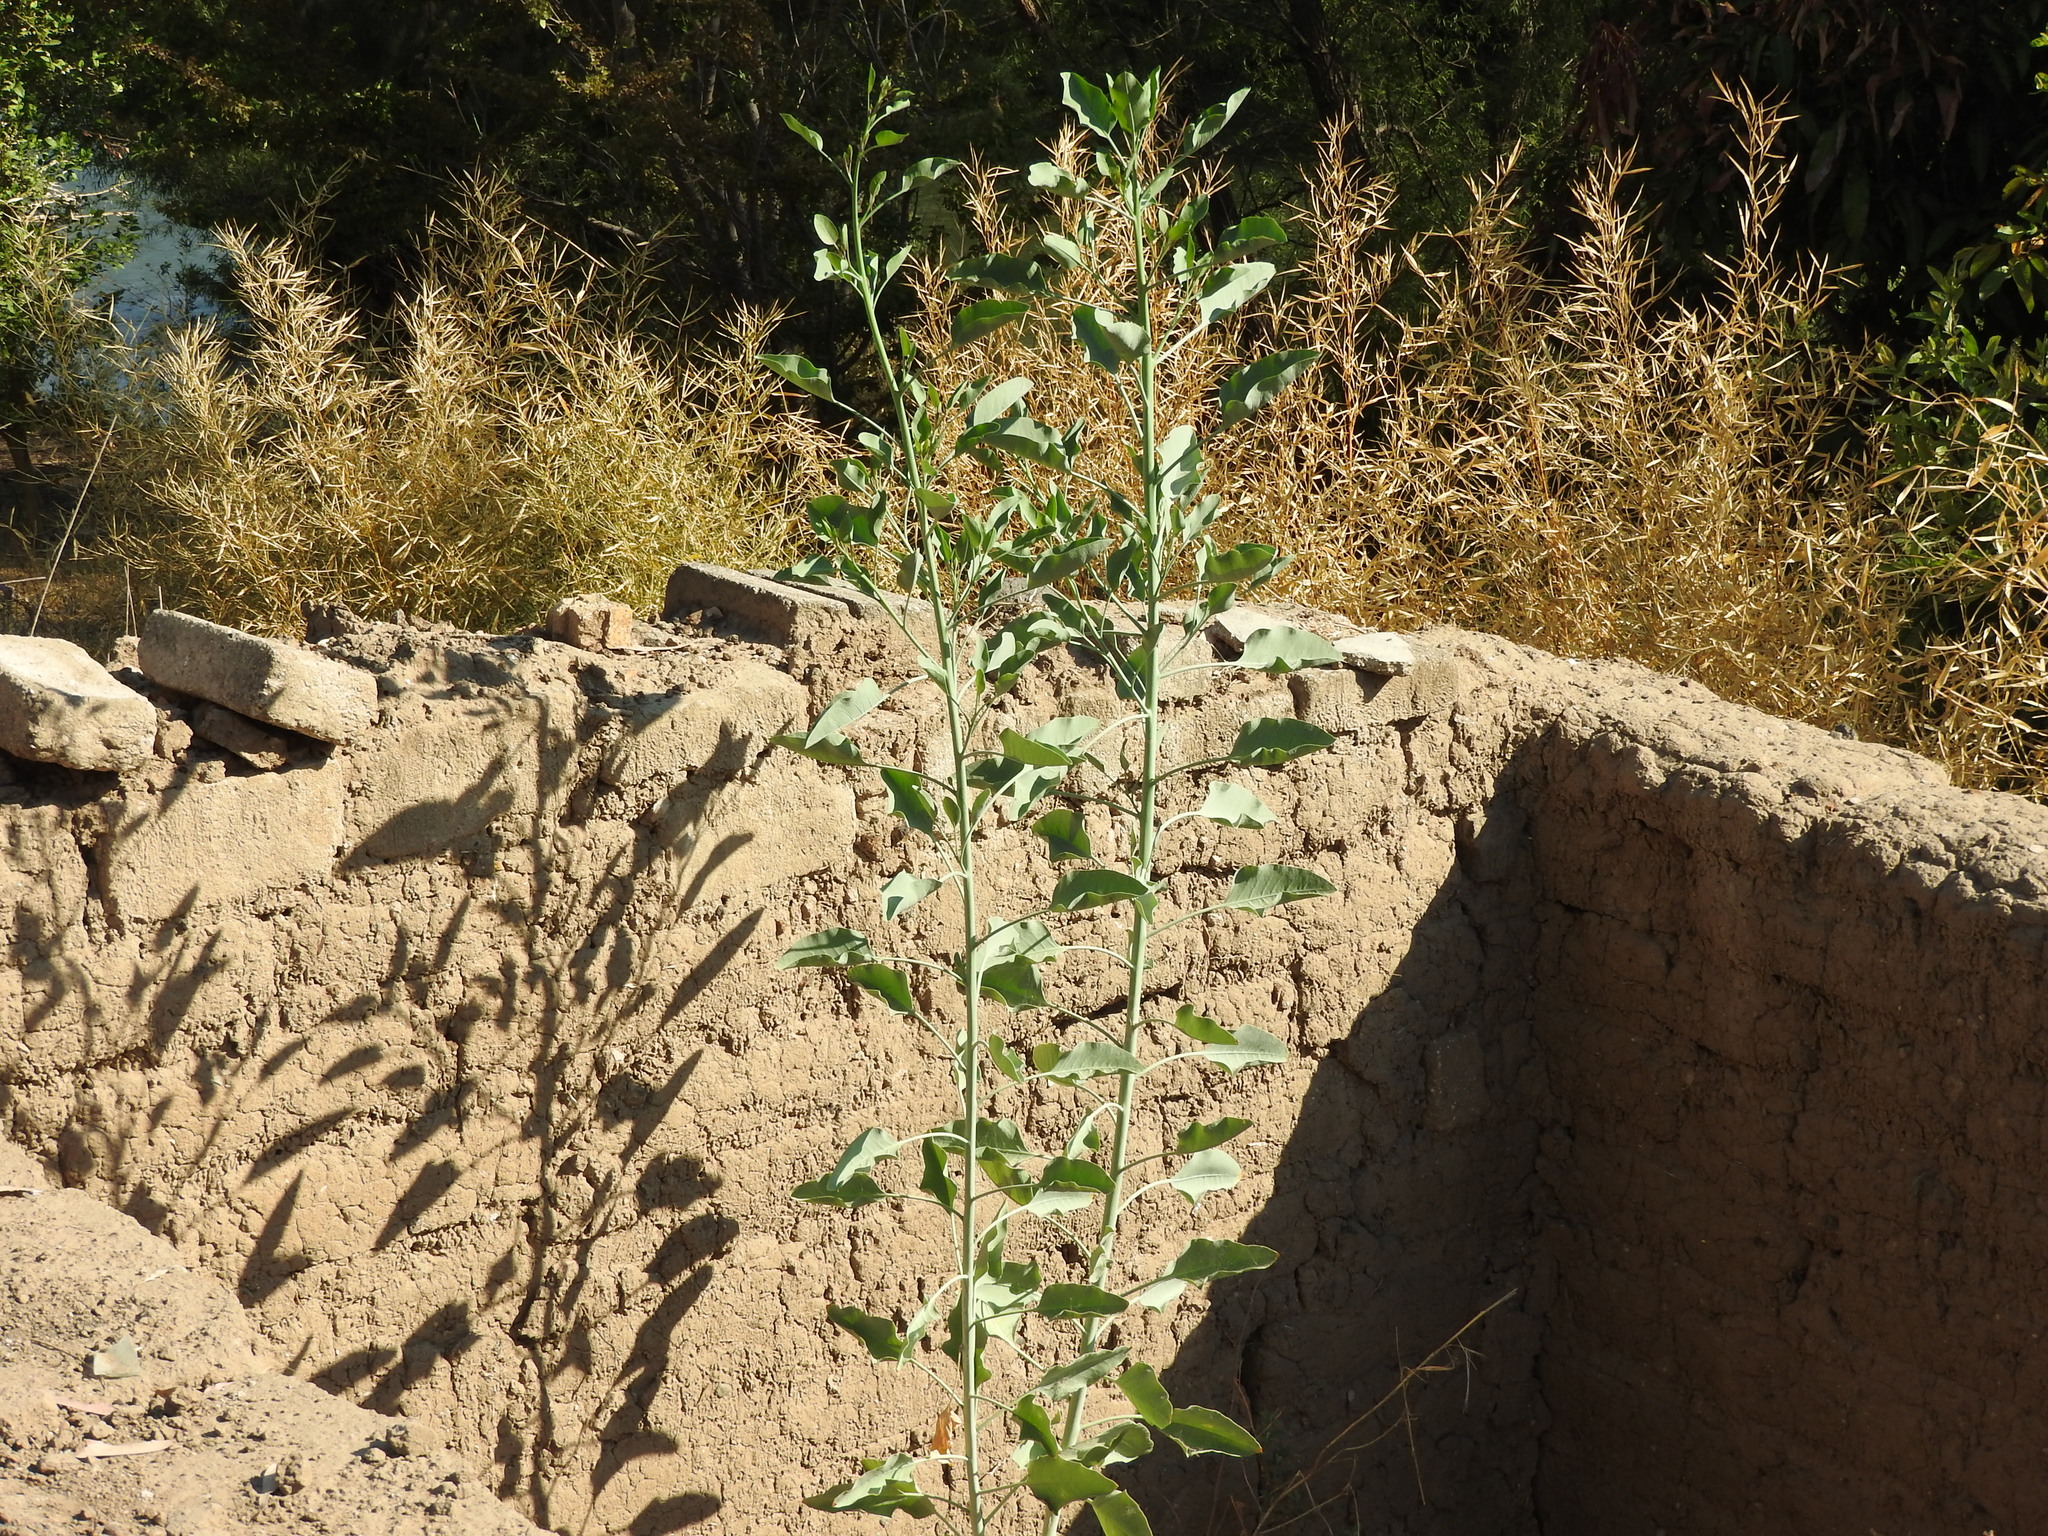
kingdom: Plantae
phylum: Tracheophyta
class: Magnoliopsida
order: Solanales
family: Solanaceae
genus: Nicotiana
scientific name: Nicotiana glauca
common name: Tree tobacco
